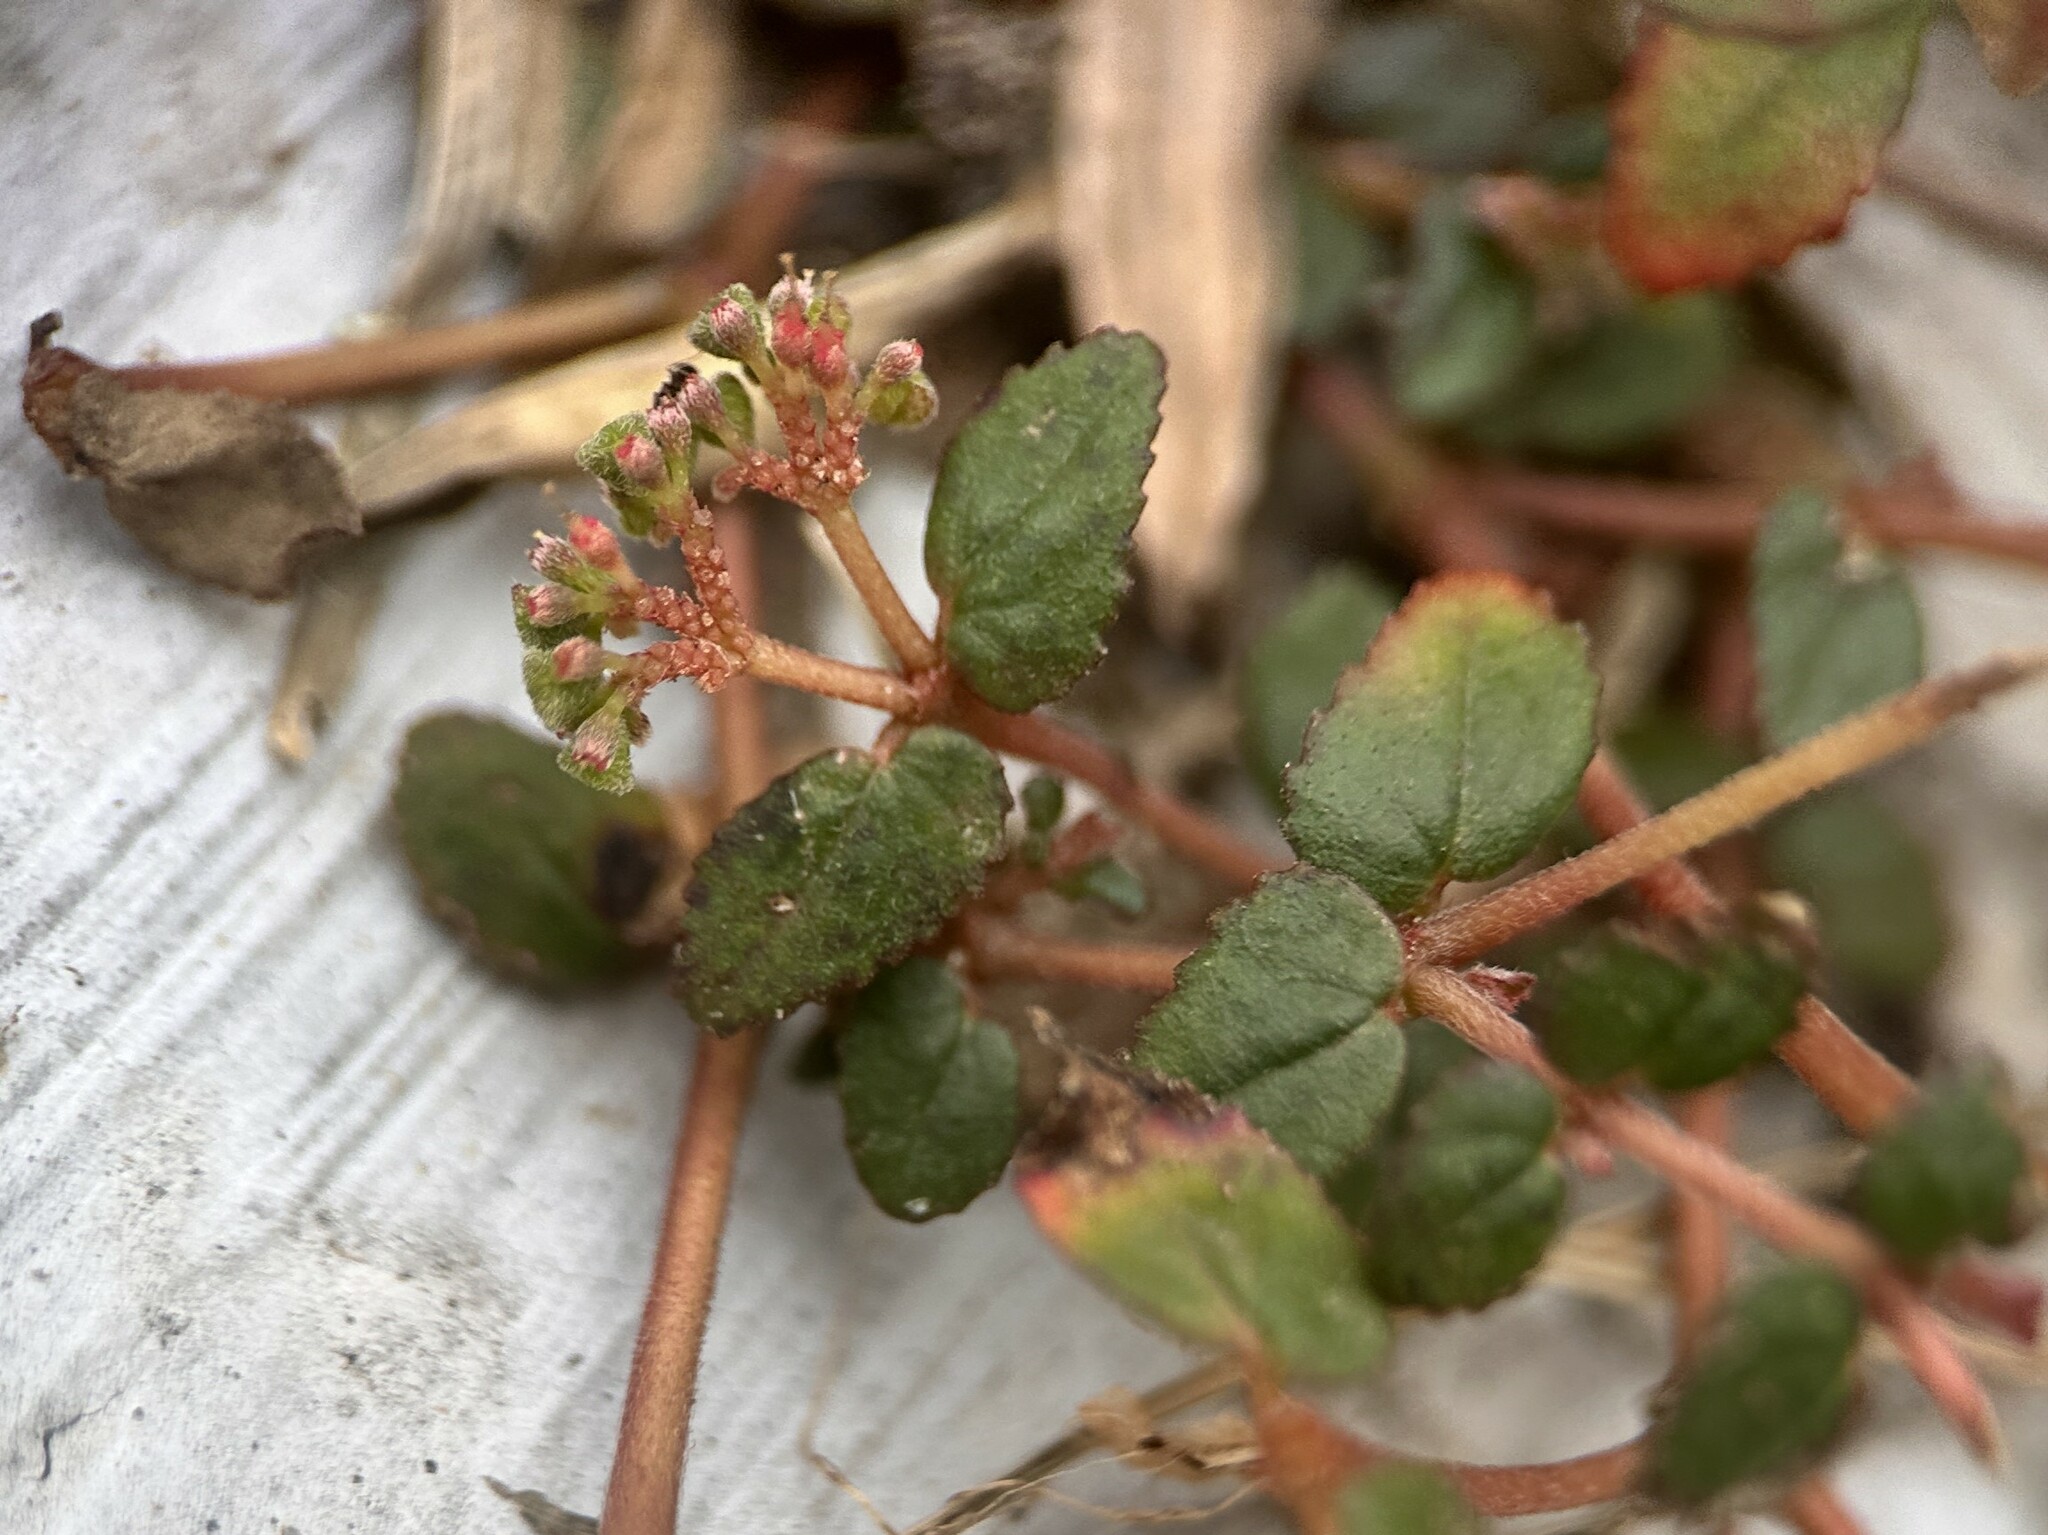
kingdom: Plantae
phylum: Tracheophyta
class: Magnoliopsida
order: Malpighiales
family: Euphorbiaceae
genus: Euphorbia
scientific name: Euphorbia ophthalmica
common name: Florida hammock sandmat
